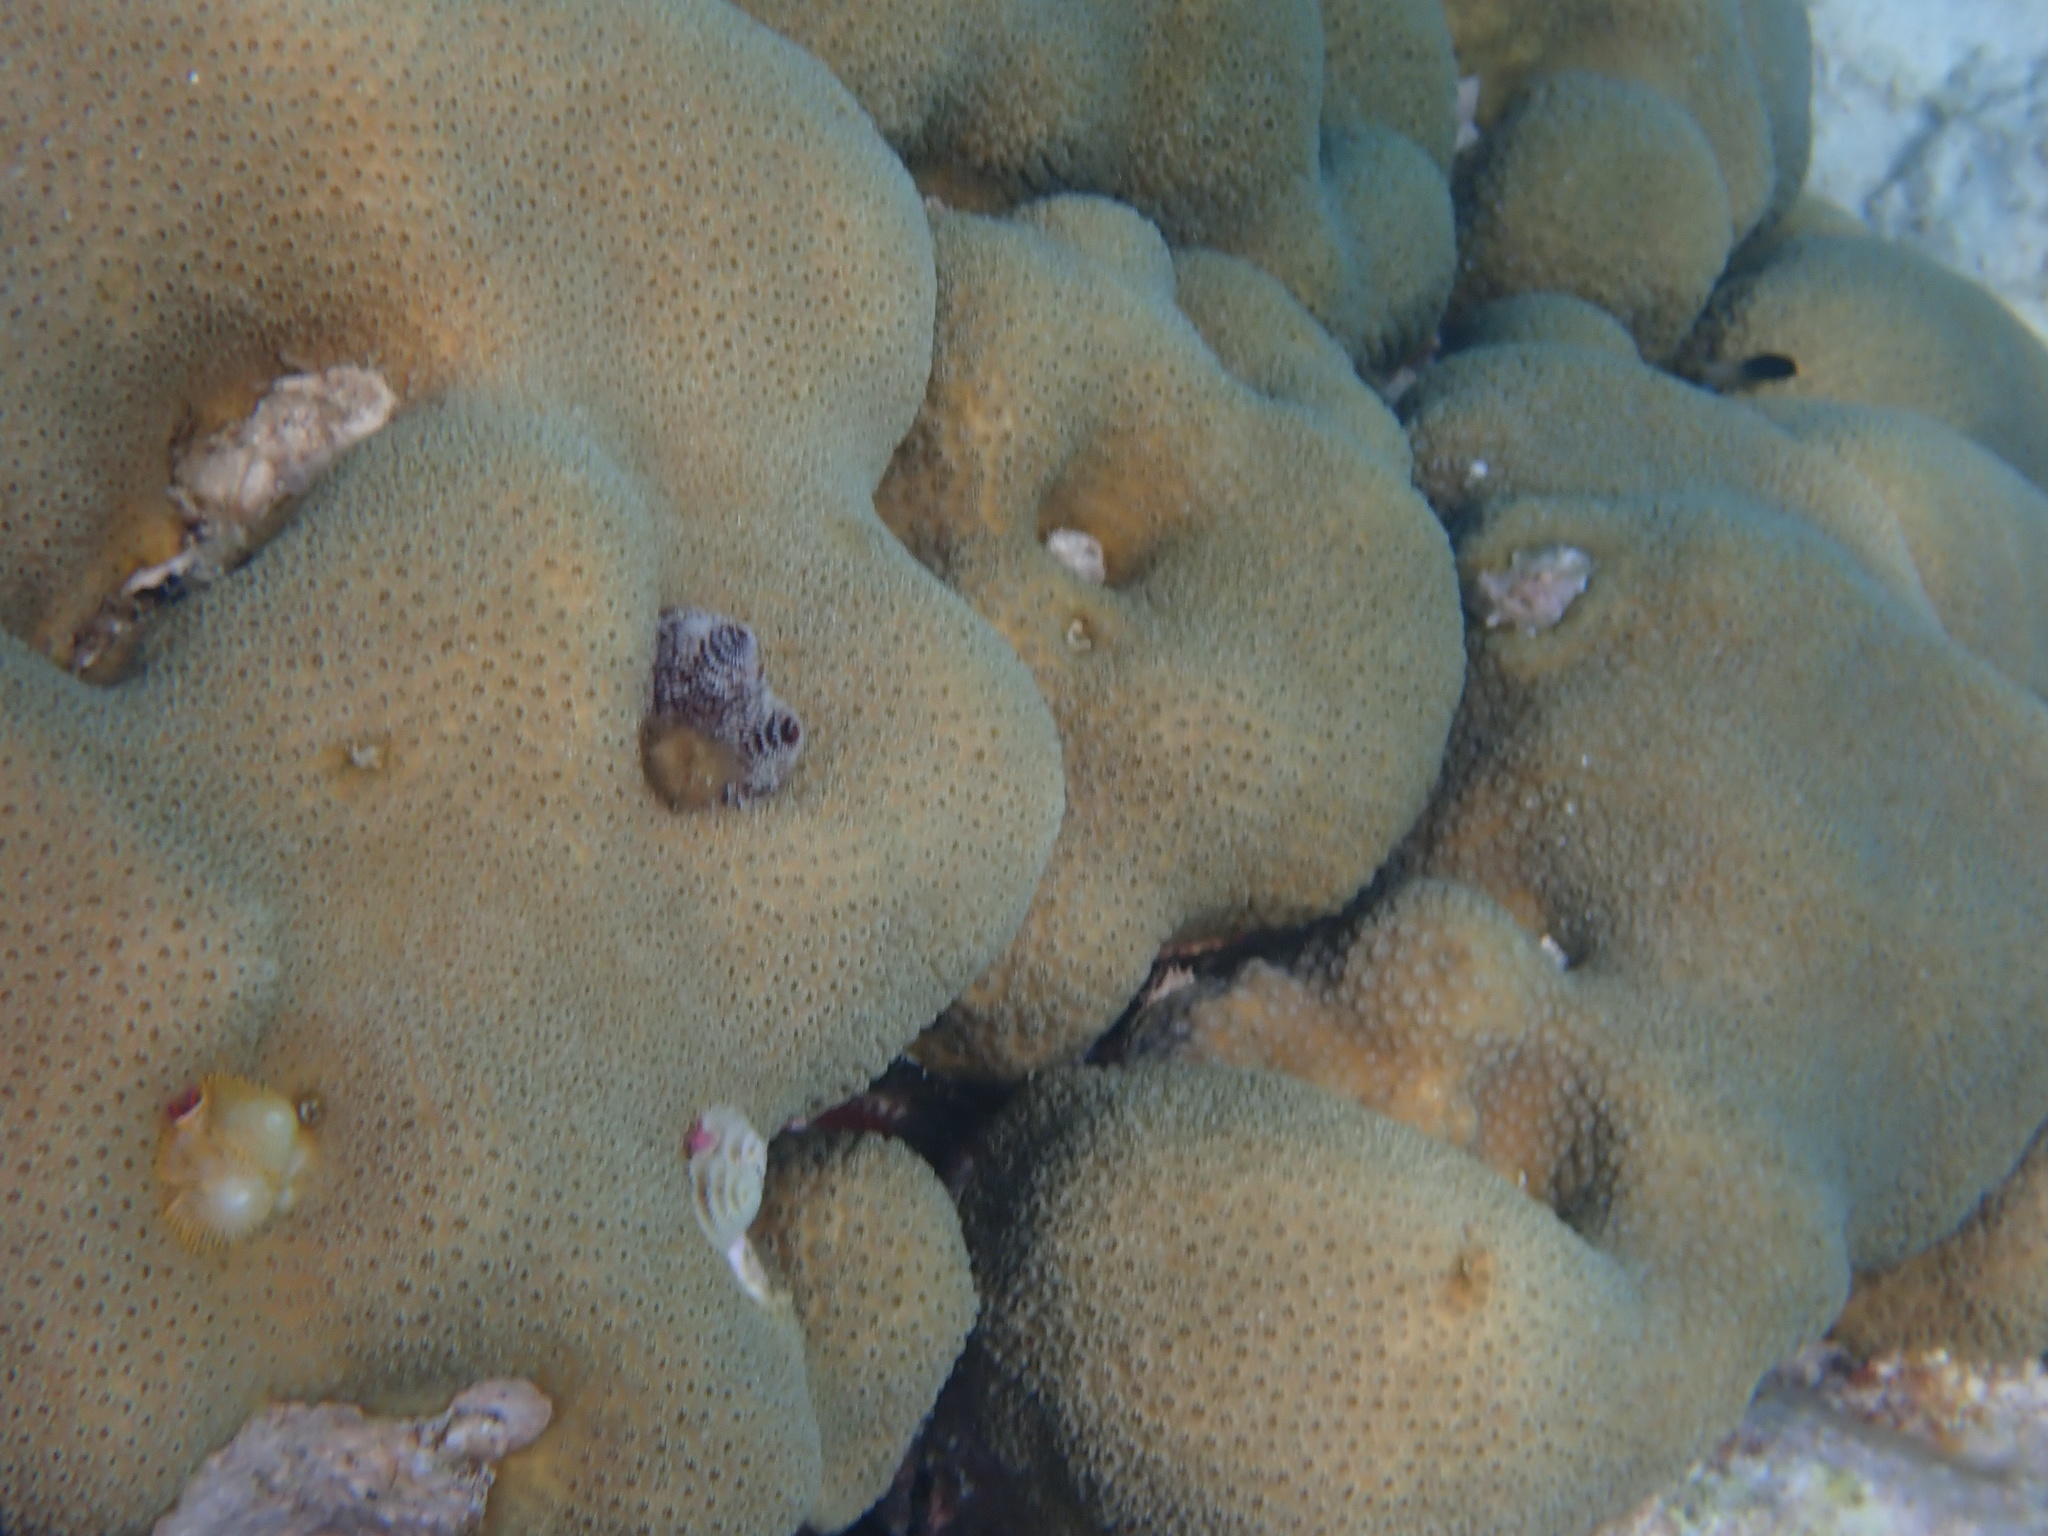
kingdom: Animalia
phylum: Cnidaria
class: Anthozoa
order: Scleractinia
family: Merulinidae
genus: Orbicella
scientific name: Orbicella annularis
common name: Boulder star coral
